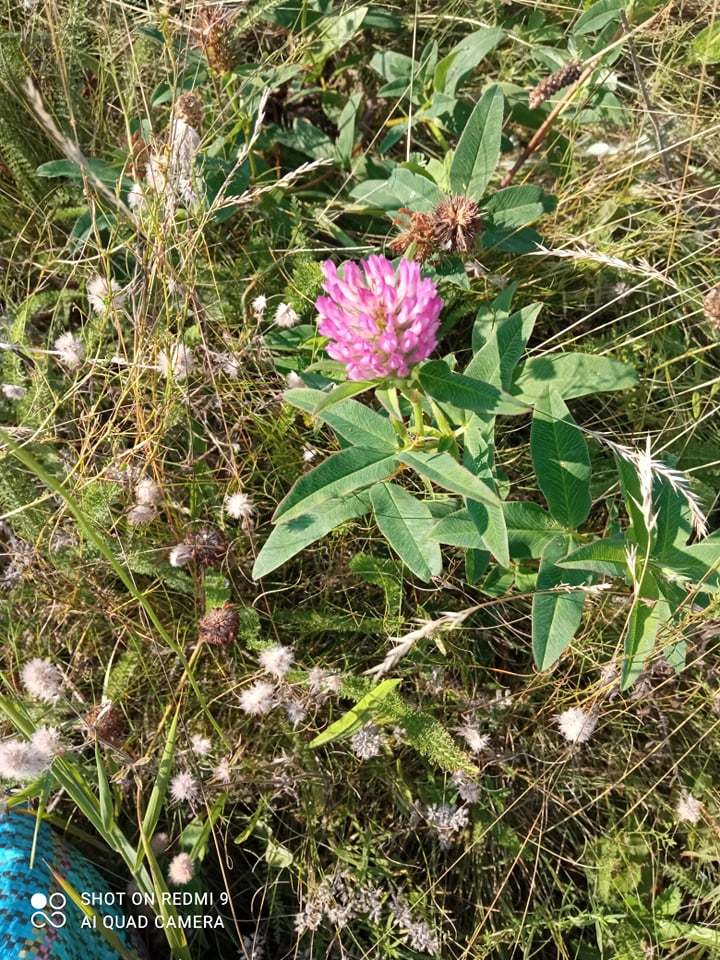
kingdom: Plantae
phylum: Tracheophyta
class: Magnoliopsida
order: Fabales
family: Fabaceae
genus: Trifolium
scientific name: Trifolium medium
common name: Zigzag clover
